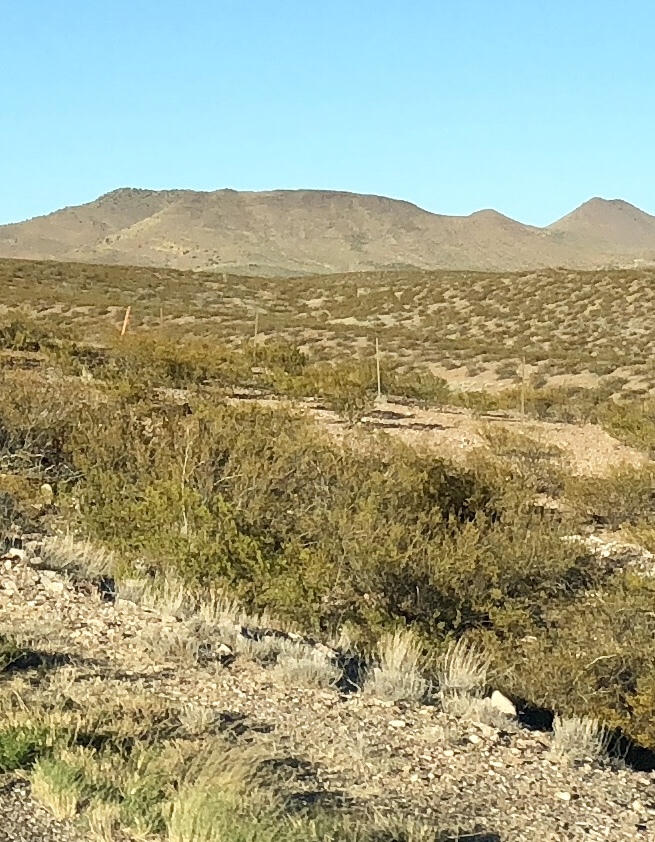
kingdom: Plantae
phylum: Tracheophyta
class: Magnoliopsida
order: Zygophyllales
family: Zygophyllaceae
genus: Larrea
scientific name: Larrea tridentata
